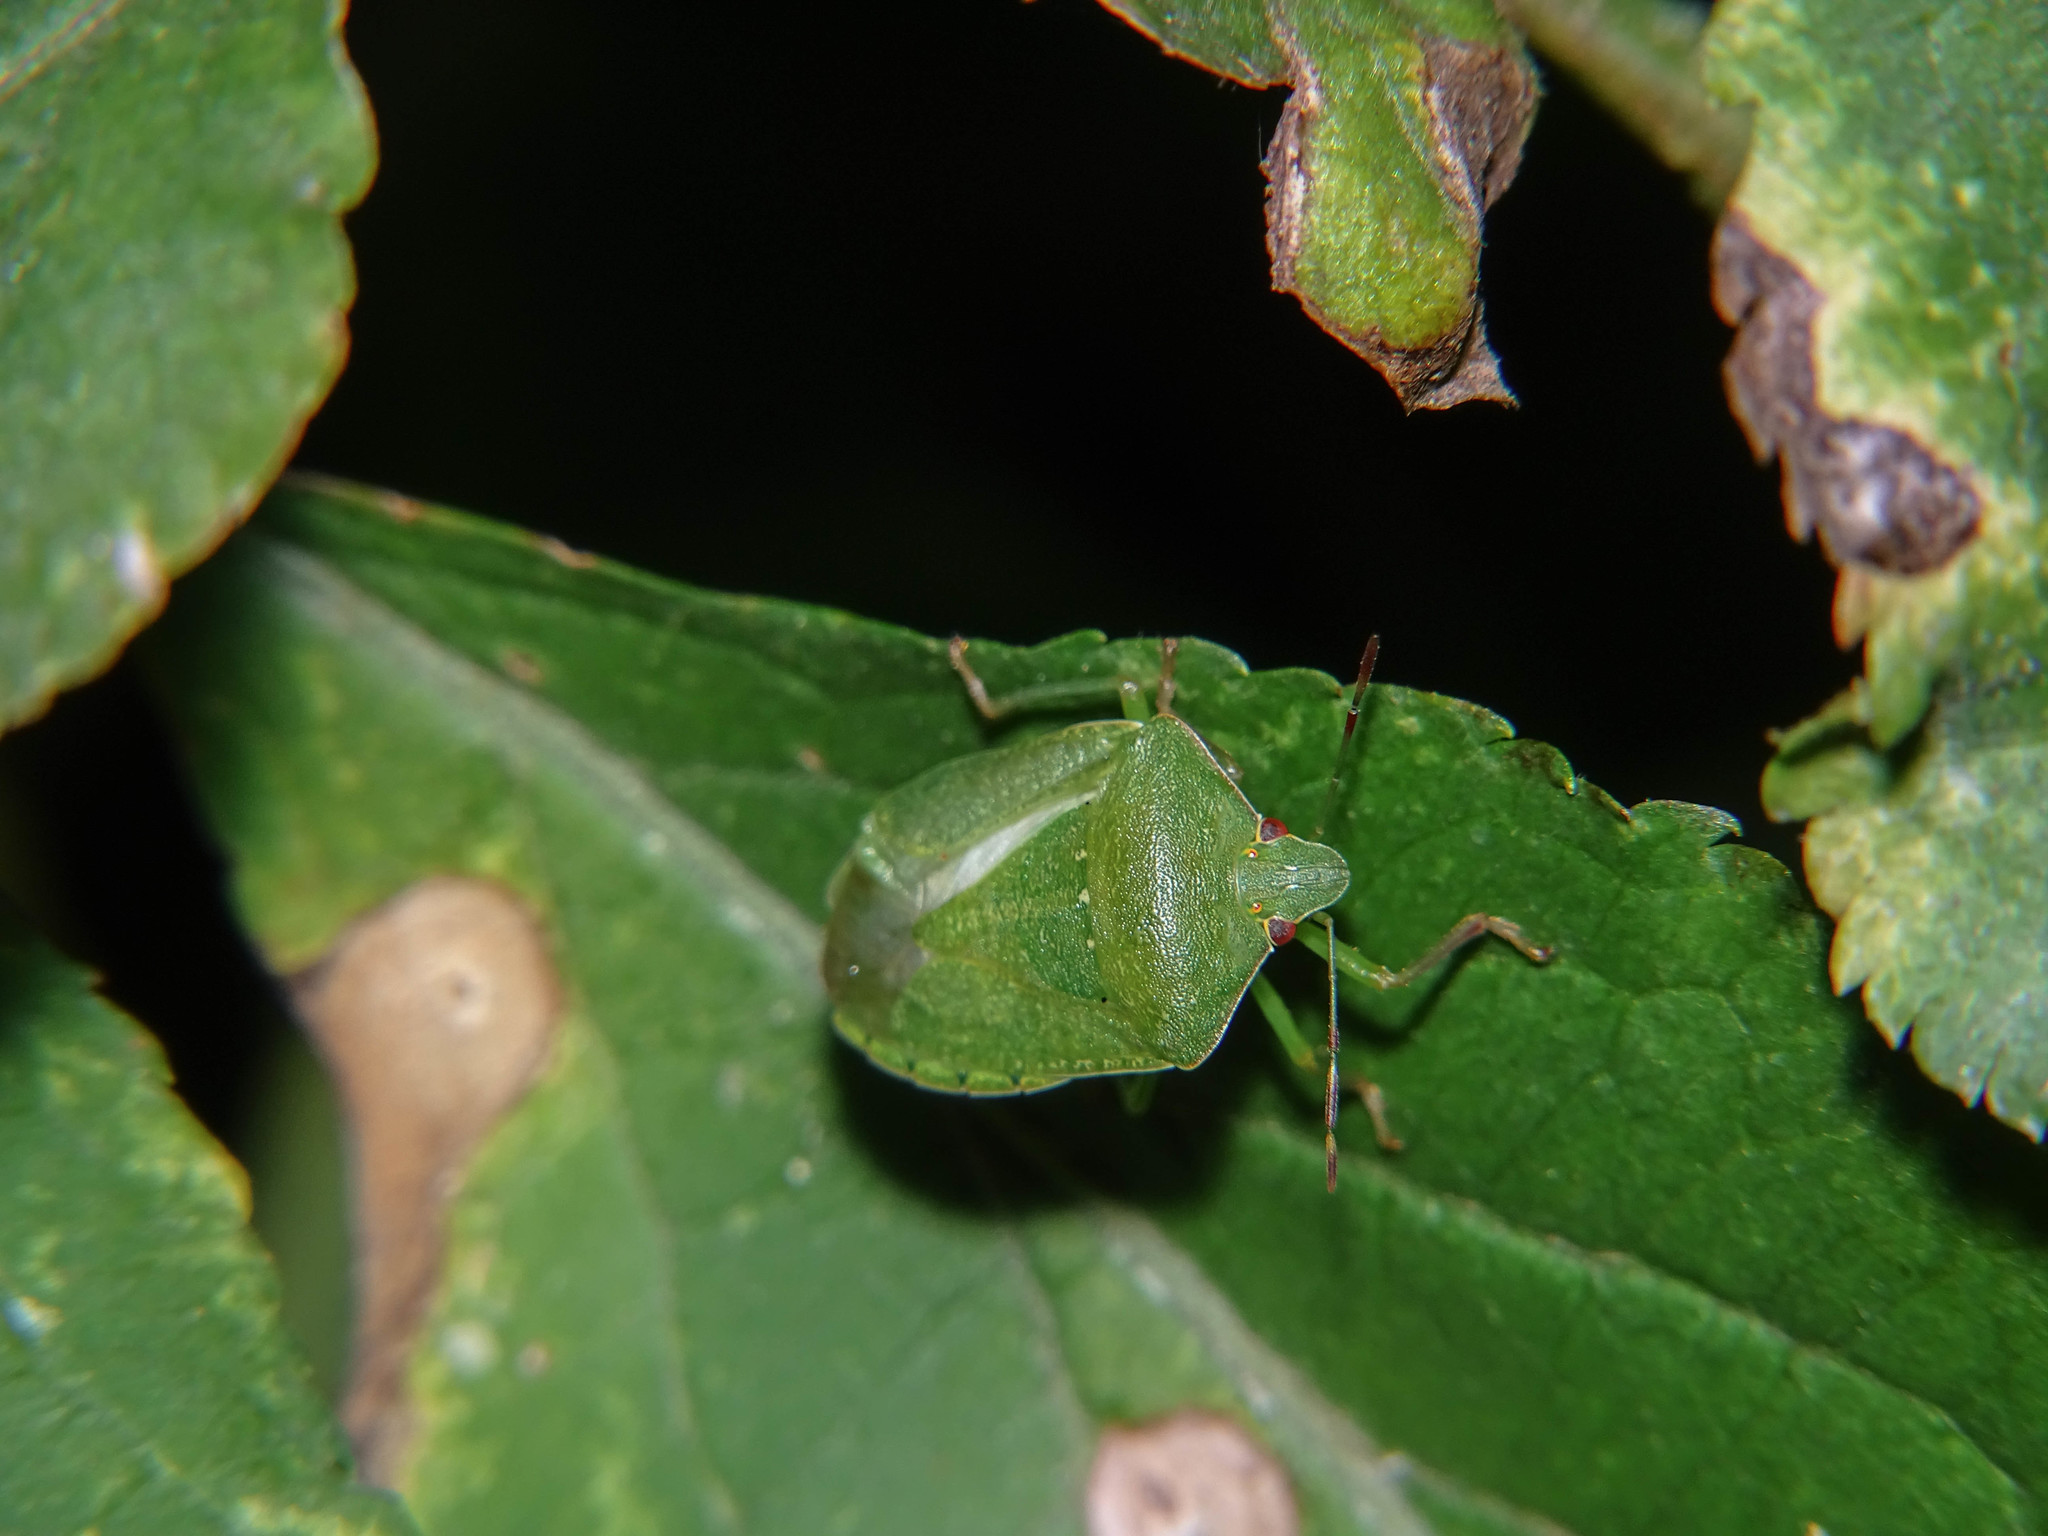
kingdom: Animalia
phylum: Arthropoda
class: Insecta
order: Hemiptera
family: Pentatomidae
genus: Nezara
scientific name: Nezara viridula
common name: Southern green stink bug
